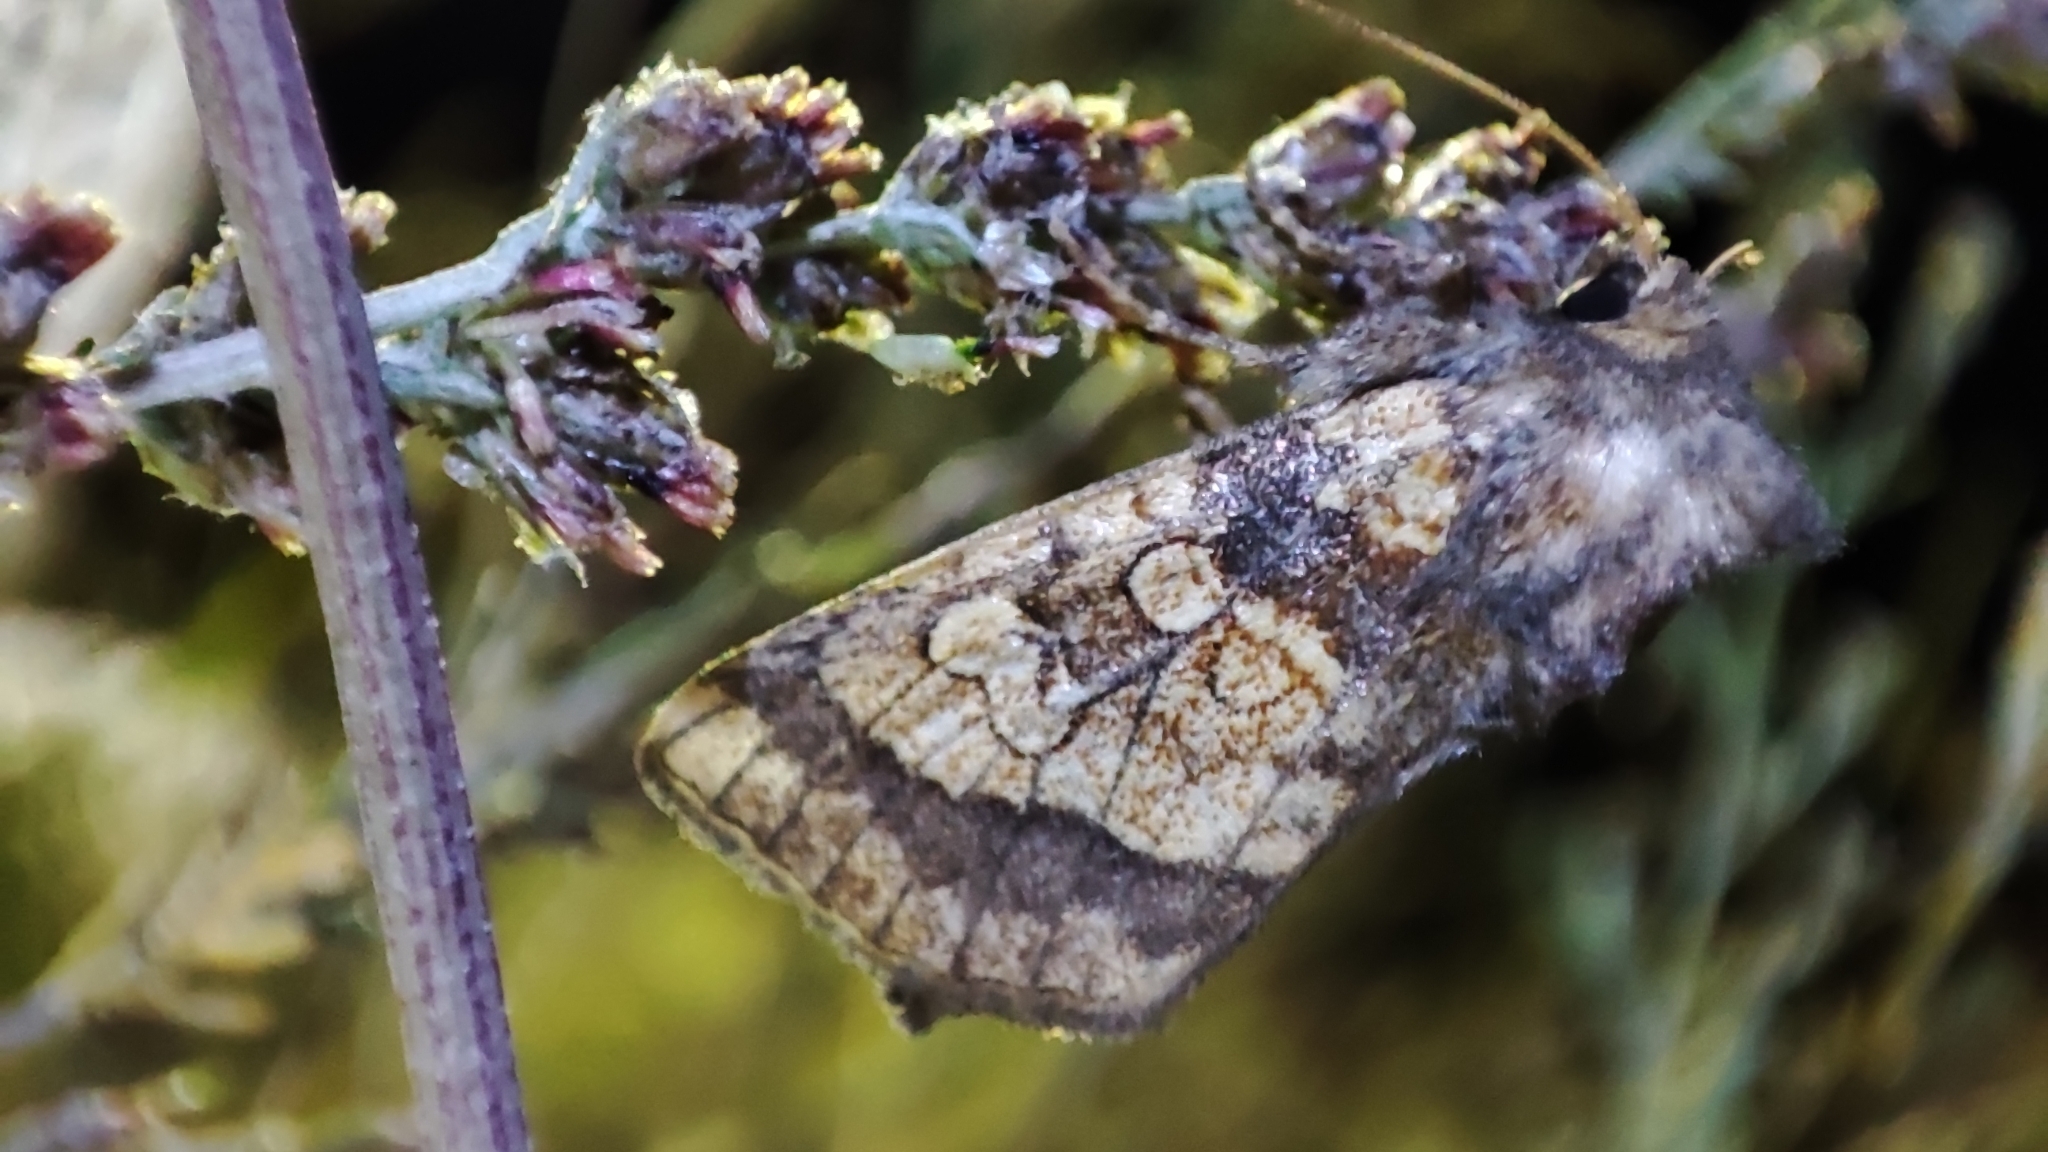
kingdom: Animalia
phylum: Arthropoda
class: Insecta
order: Lepidoptera
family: Noctuidae
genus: Gortyna
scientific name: Gortyna flavago
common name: Frosted orange
